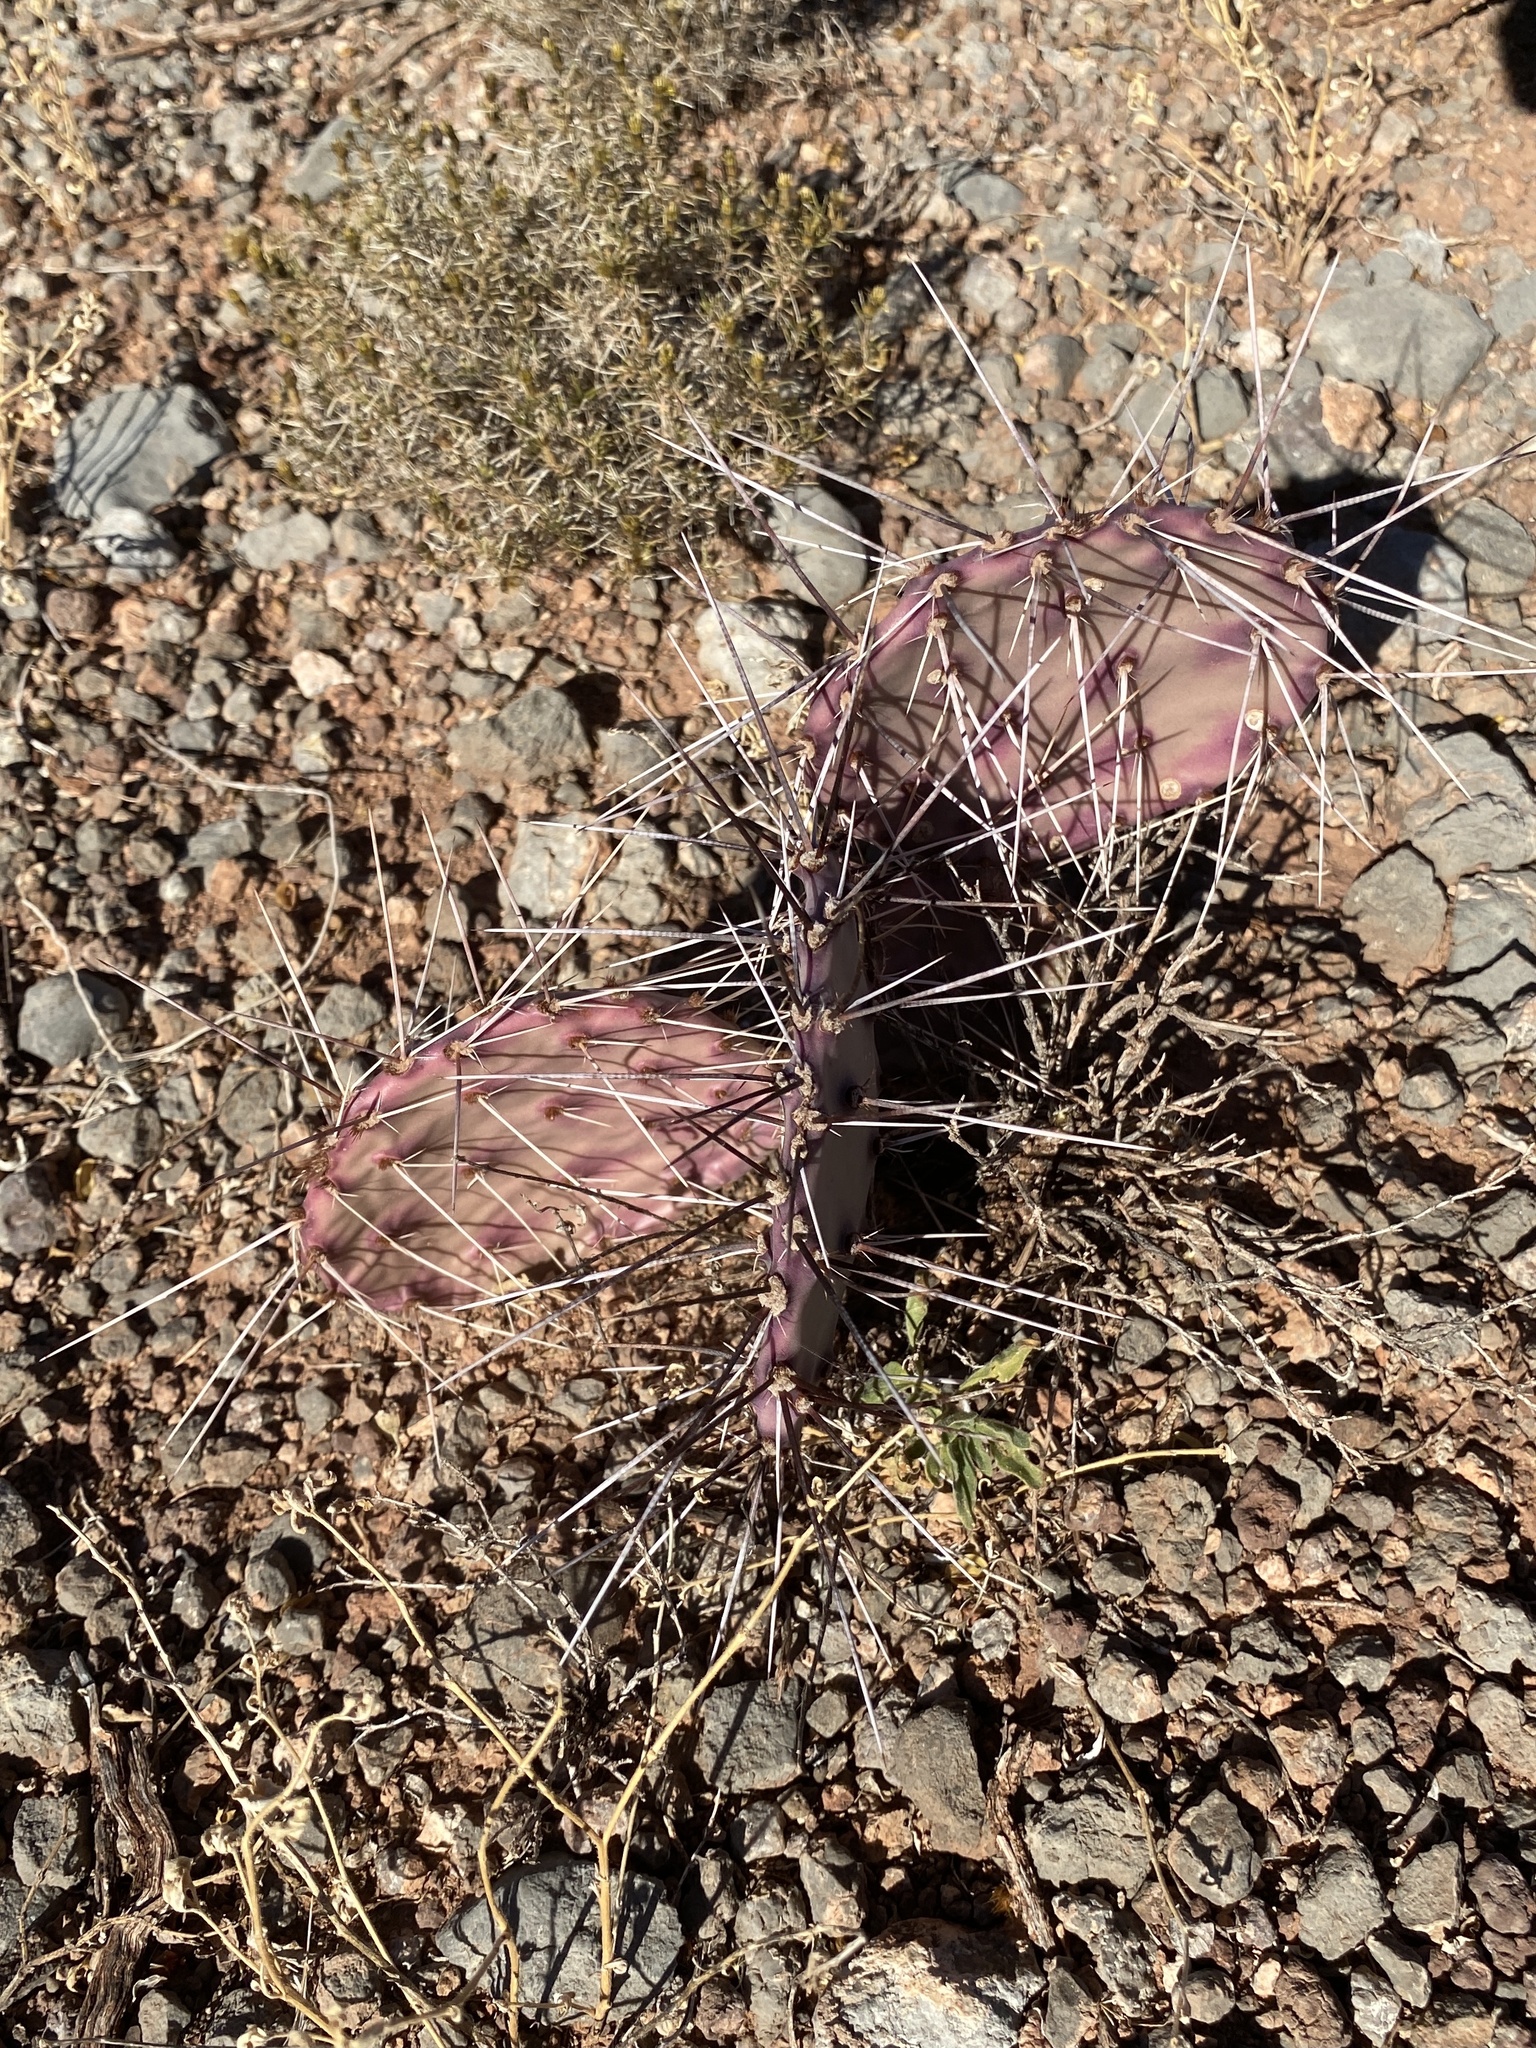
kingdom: Plantae
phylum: Tracheophyta
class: Magnoliopsida
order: Caryophyllales
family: Cactaceae
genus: Opuntia
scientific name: Opuntia macrocentra
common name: Purple prickly-pear
